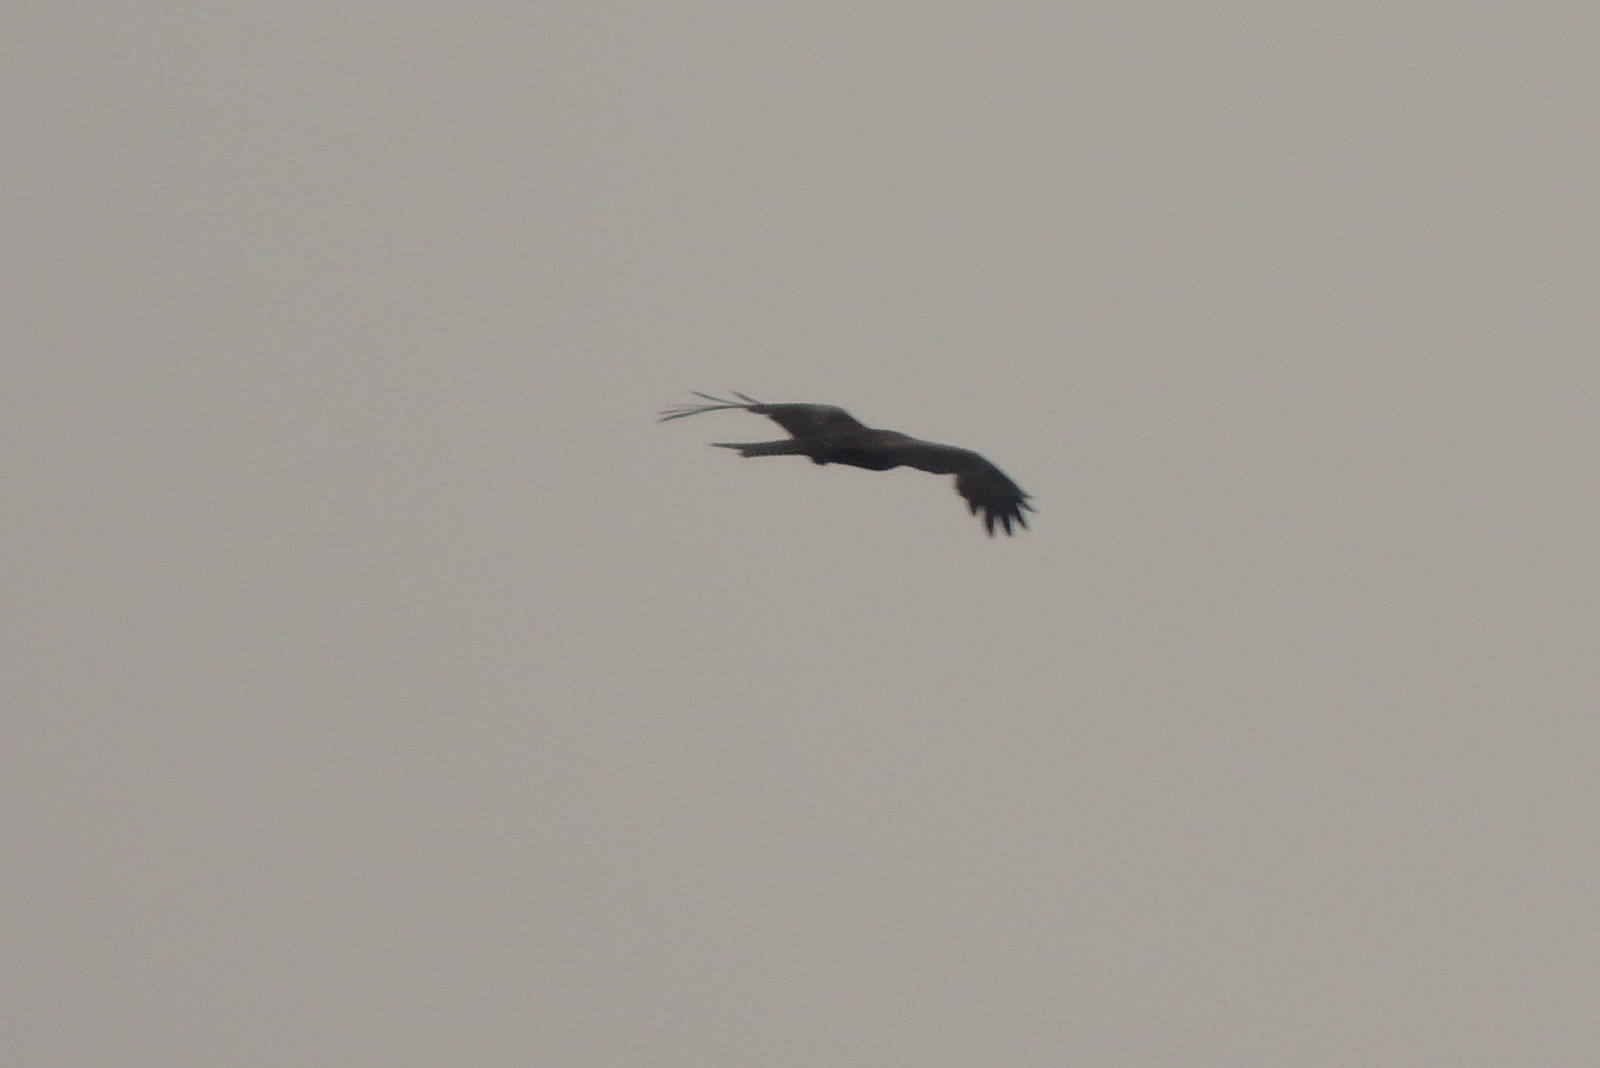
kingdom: Animalia
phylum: Chordata
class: Aves
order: Accipitriformes
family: Accipitridae
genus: Milvus
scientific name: Milvus migrans
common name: Black kite
